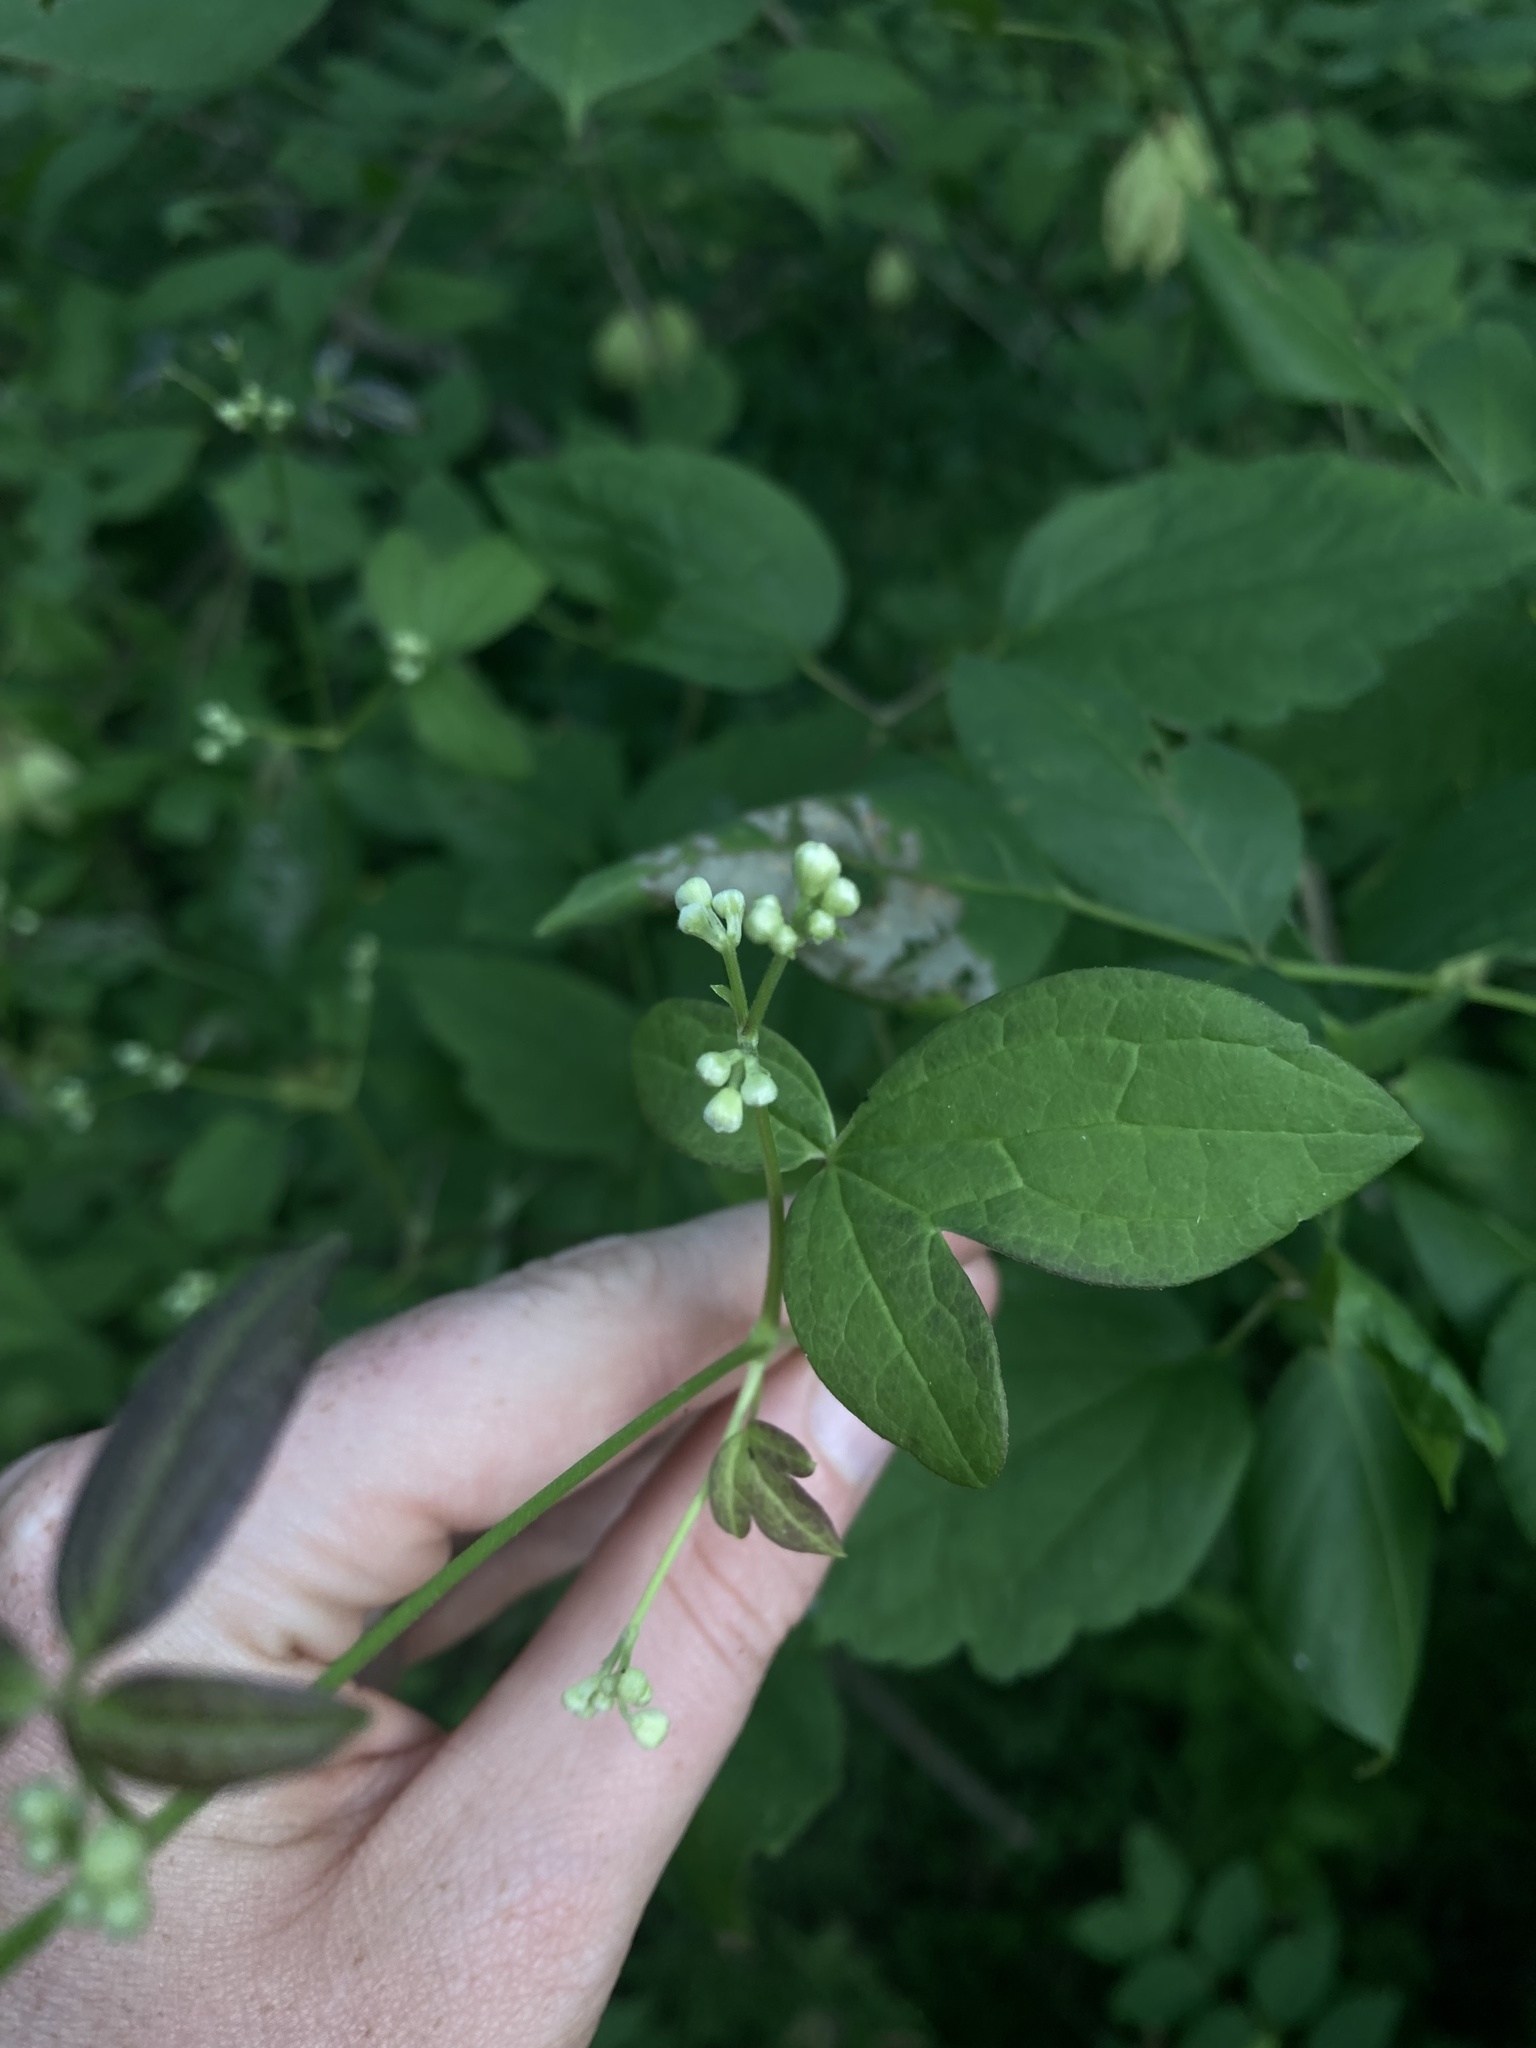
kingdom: Plantae
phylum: Tracheophyta
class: Magnoliopsida
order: Ranunculales
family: Ranunculaceae
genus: Clematis
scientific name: Clematis virginiana
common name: Virgin's-bower
